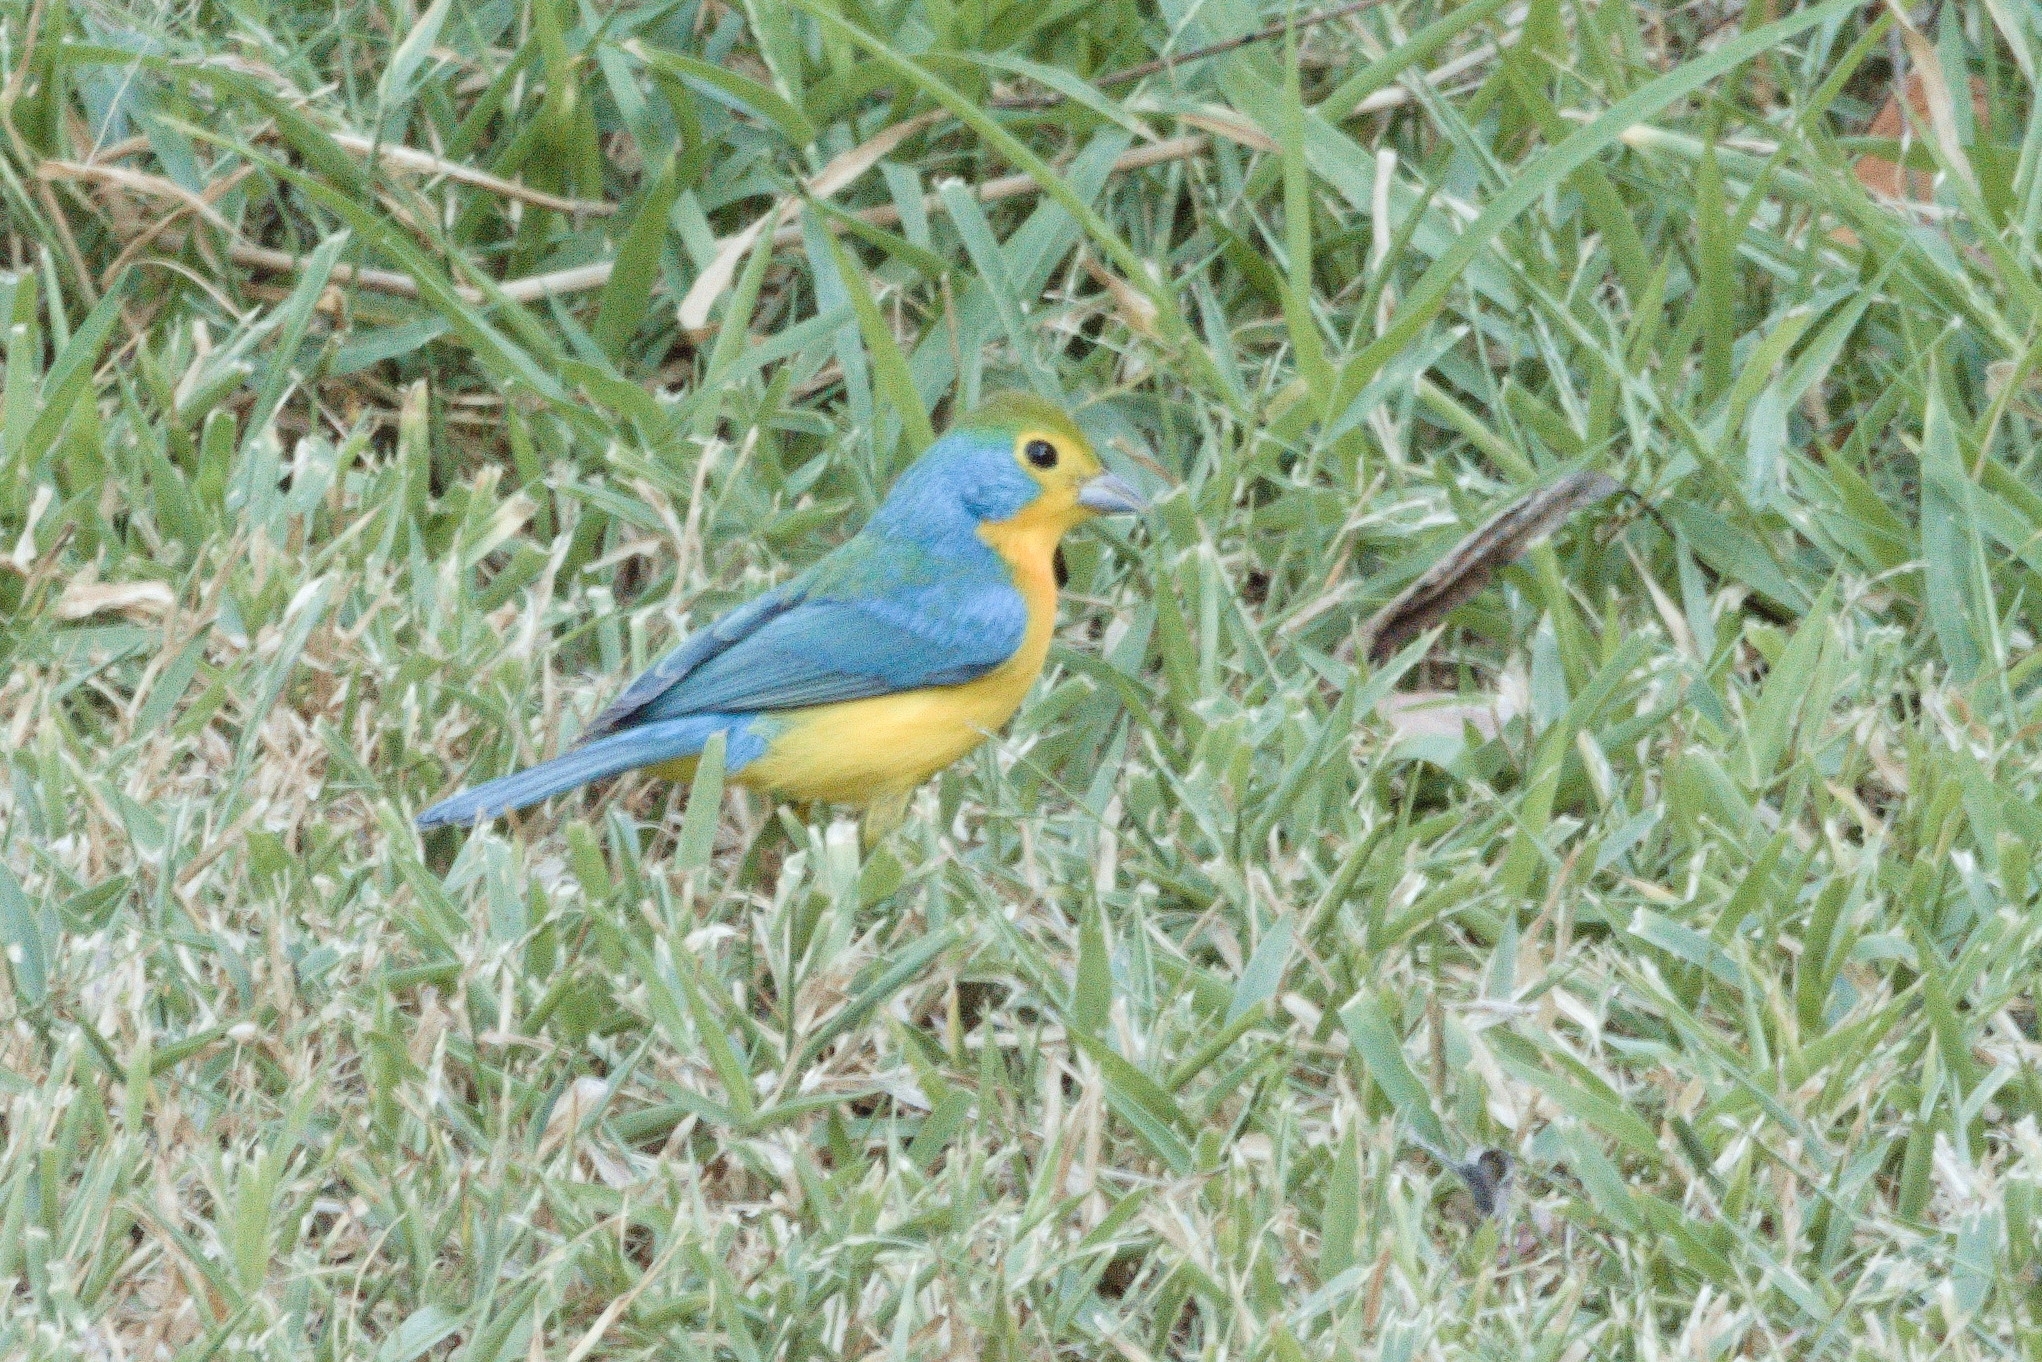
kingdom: Animalia
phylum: Chordata
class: Aves
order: Passeriformes
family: Cardinalidae
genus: Passerina
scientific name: Passerina leclancherii
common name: Orange-breasted bunting
